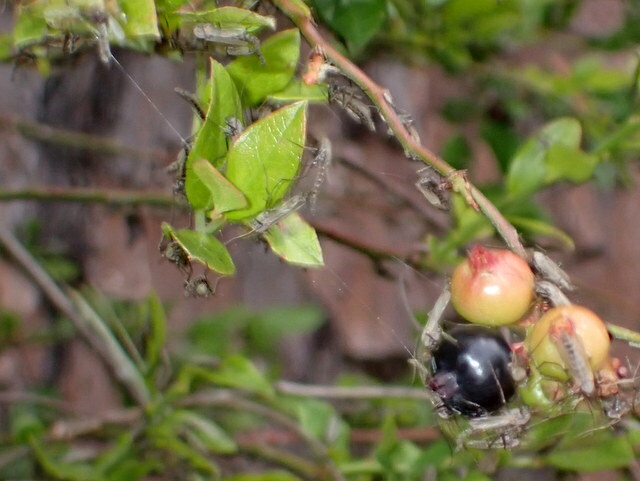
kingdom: Plantae
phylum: Tracheophyta
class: Magnoliopsida
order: Ericales
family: Ericaceae
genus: Vaccinium
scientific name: Vaccinium corymbosum
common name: Blueberry
